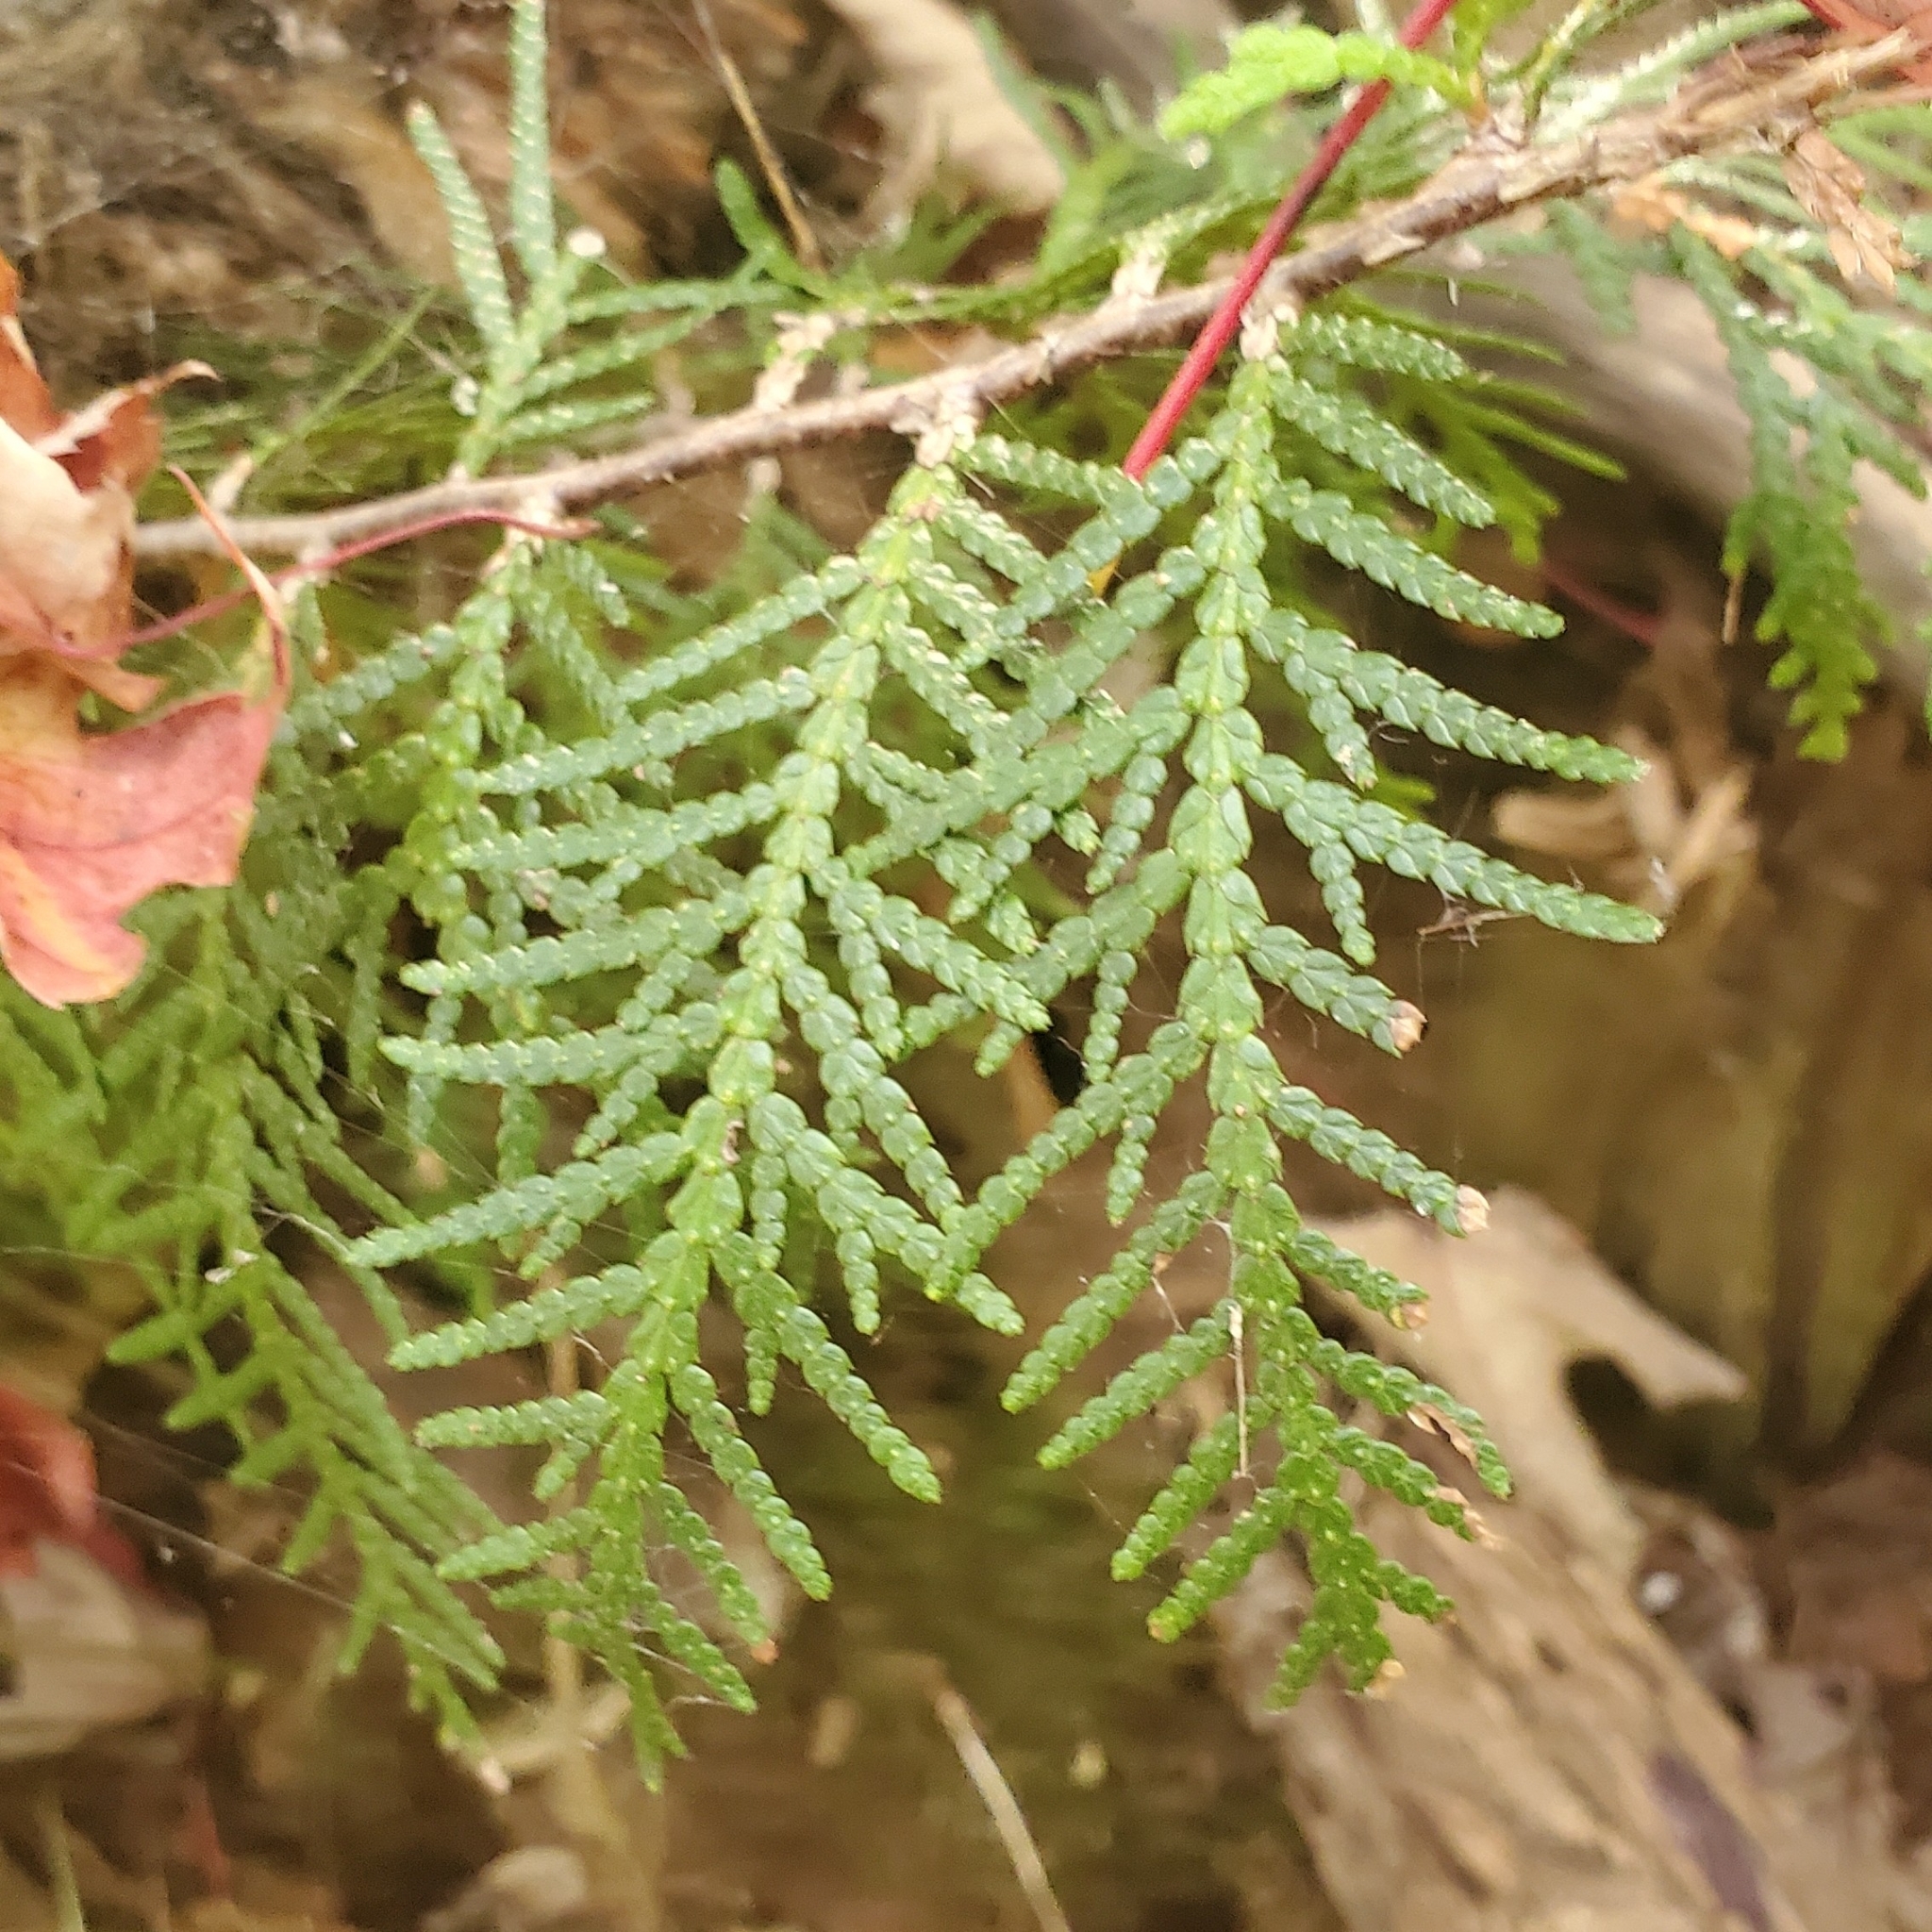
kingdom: Plantae
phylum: Tracheophyta
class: Pinopsida
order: Pinales
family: Cupressaceae
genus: Thuja
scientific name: Thuja occidentalis
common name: Northern white-cedar
